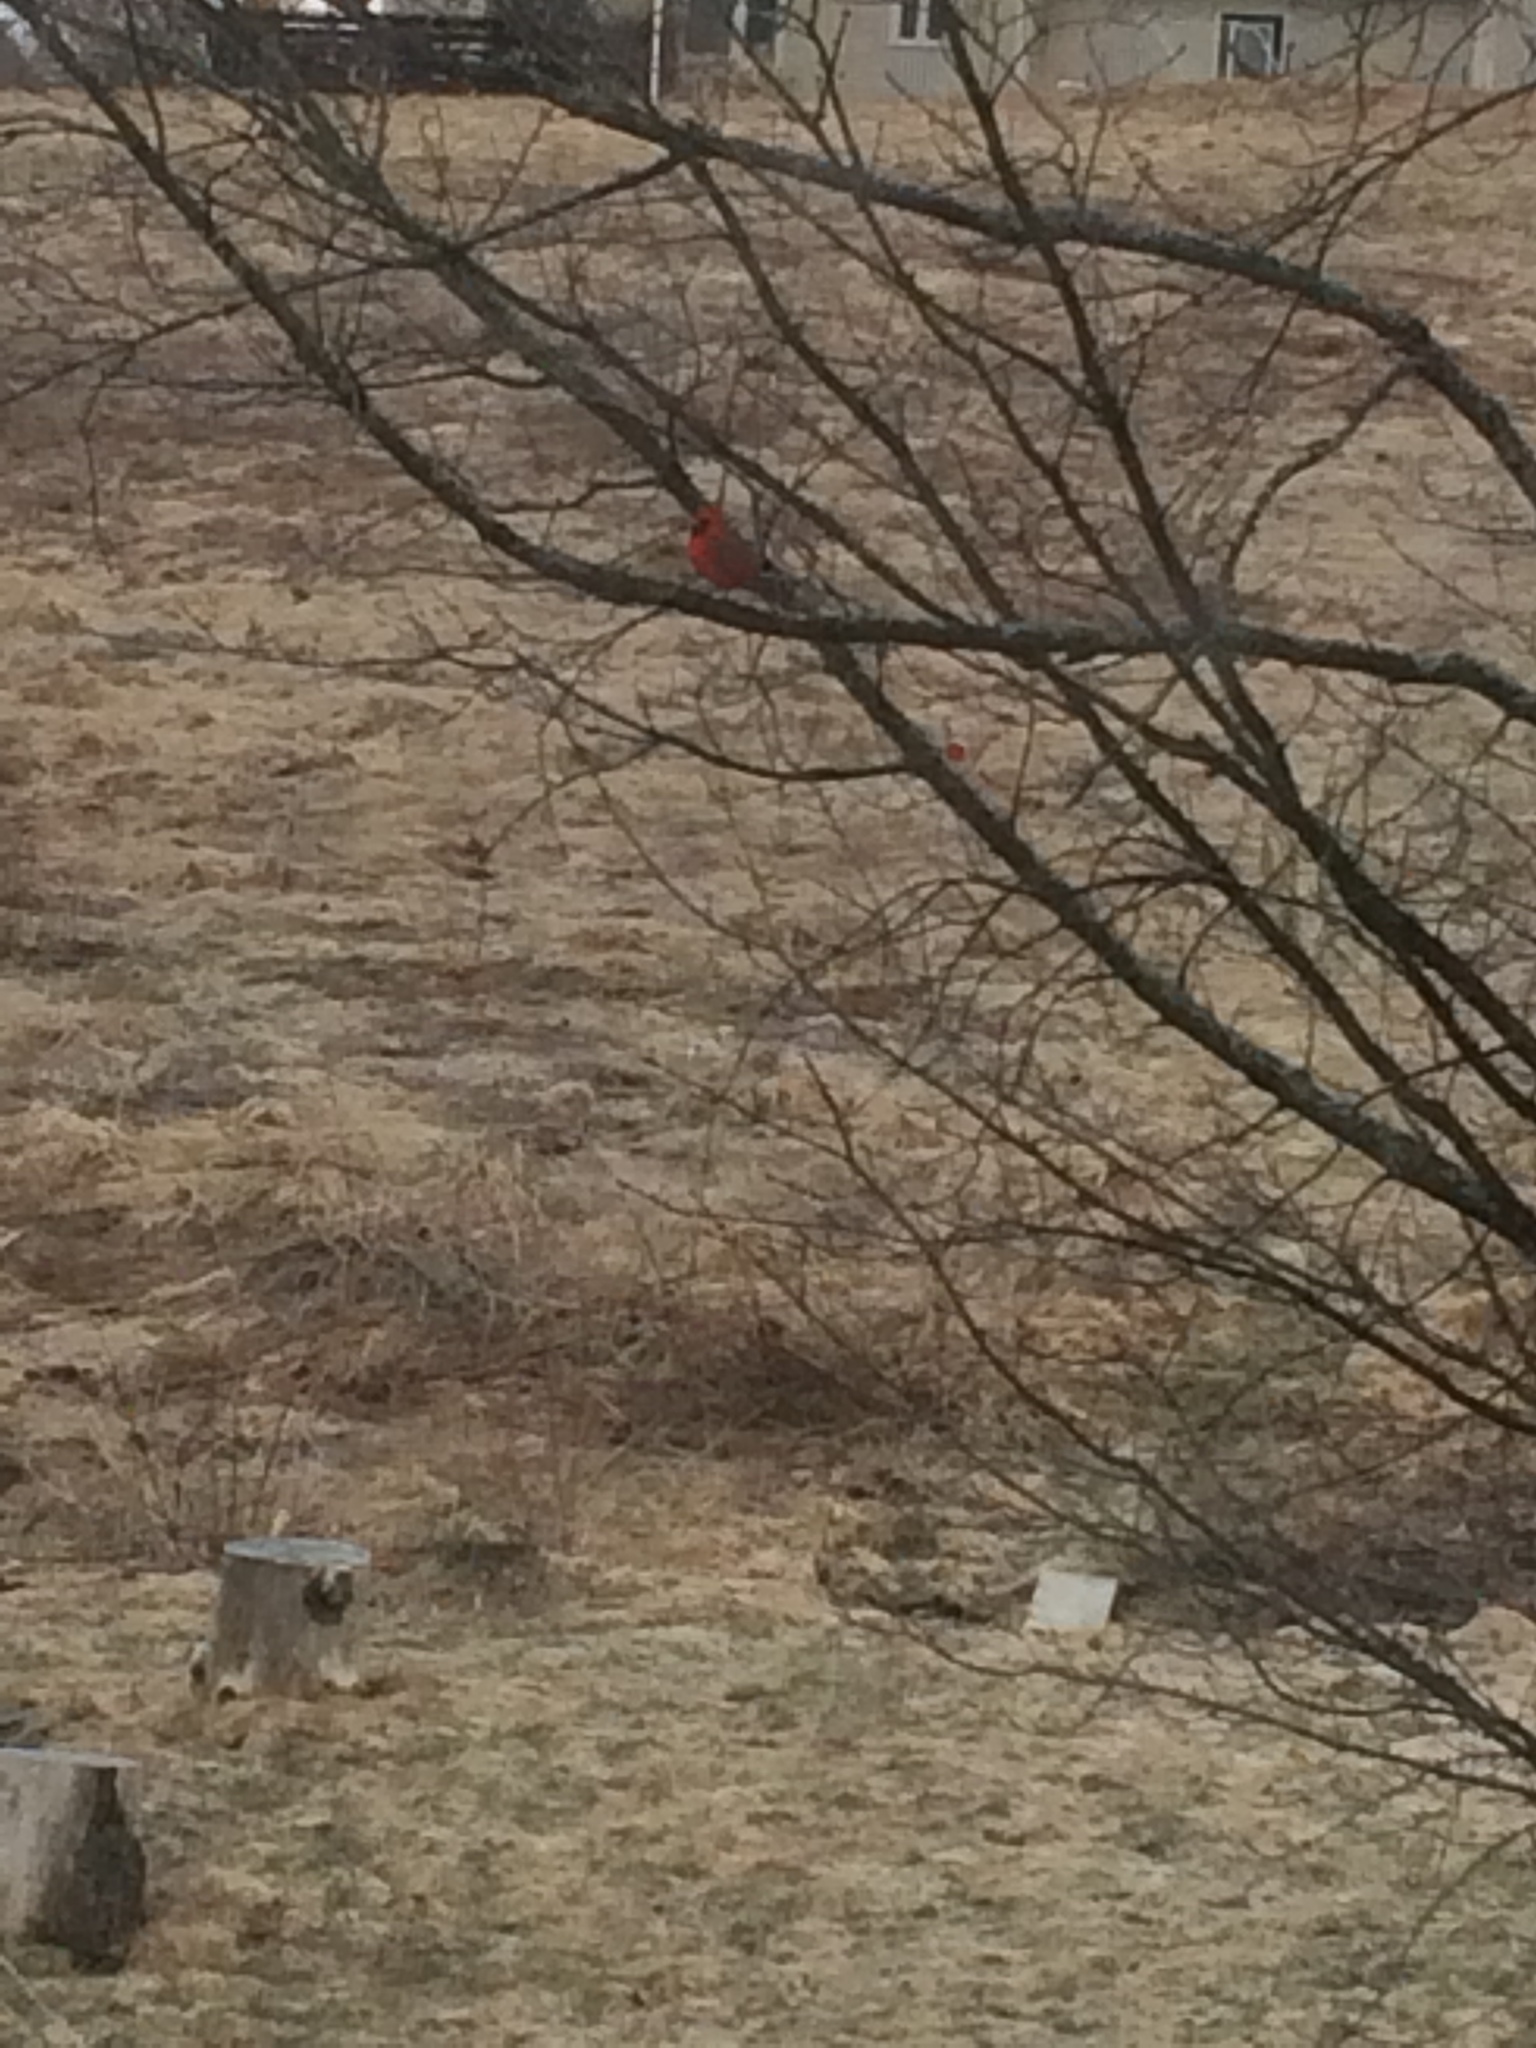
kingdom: Animalia
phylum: Chordata
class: Aves
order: Passeriformes
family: Cardinalidae
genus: Cardinalis
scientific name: Cardinalis cardinalis
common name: Northern cardinal
